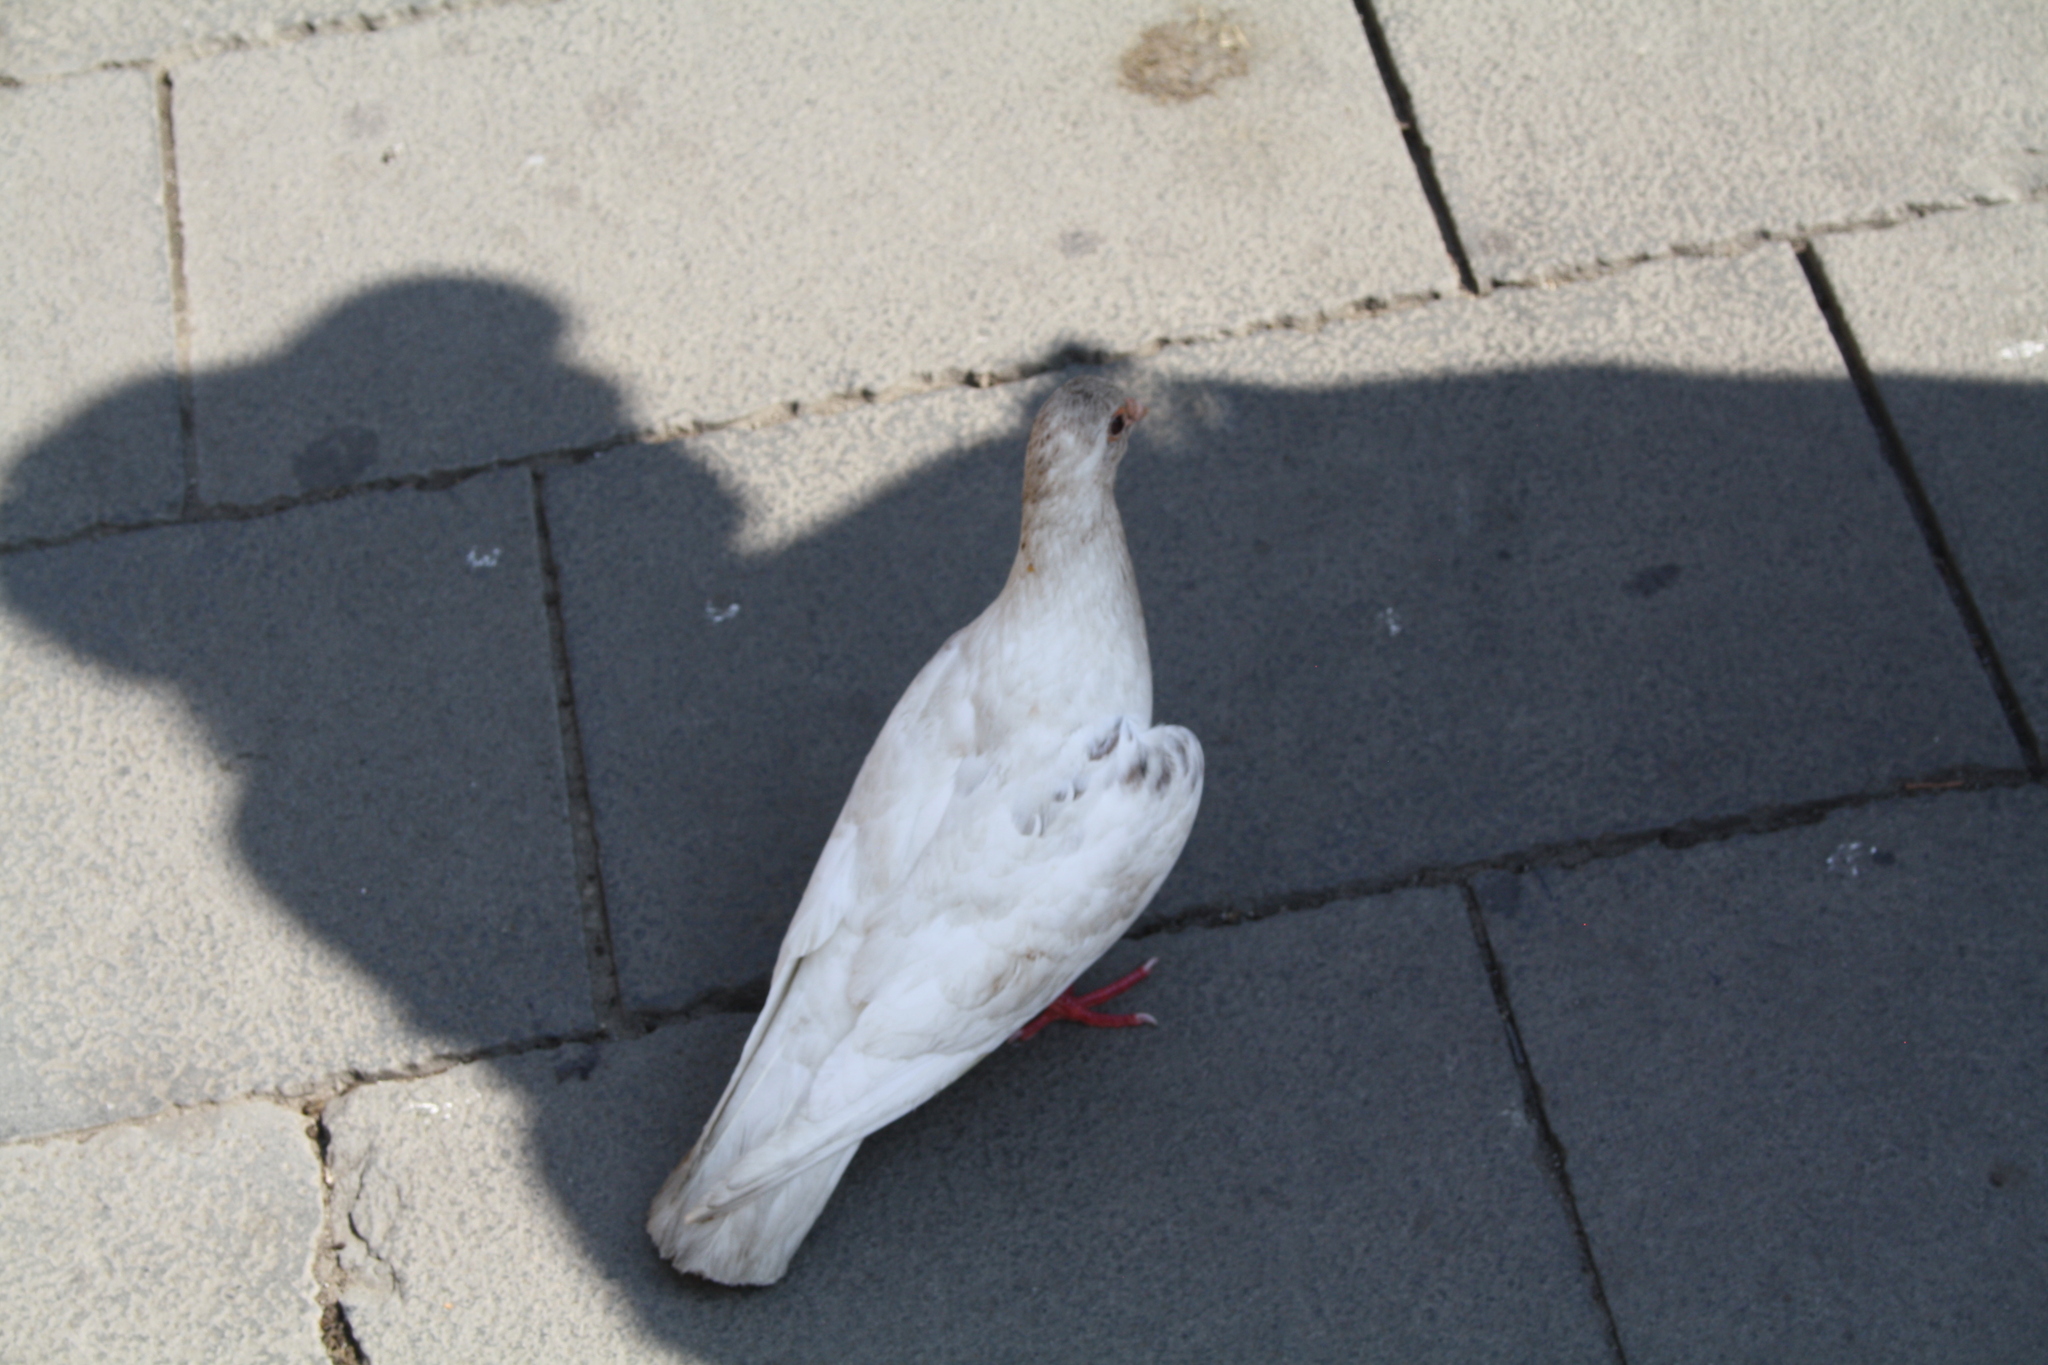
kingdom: Animalia
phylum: Chordata
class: Aves
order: Columbiformes
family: Columbidae
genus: Columba
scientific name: Columba livia
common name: Rock pigeon
